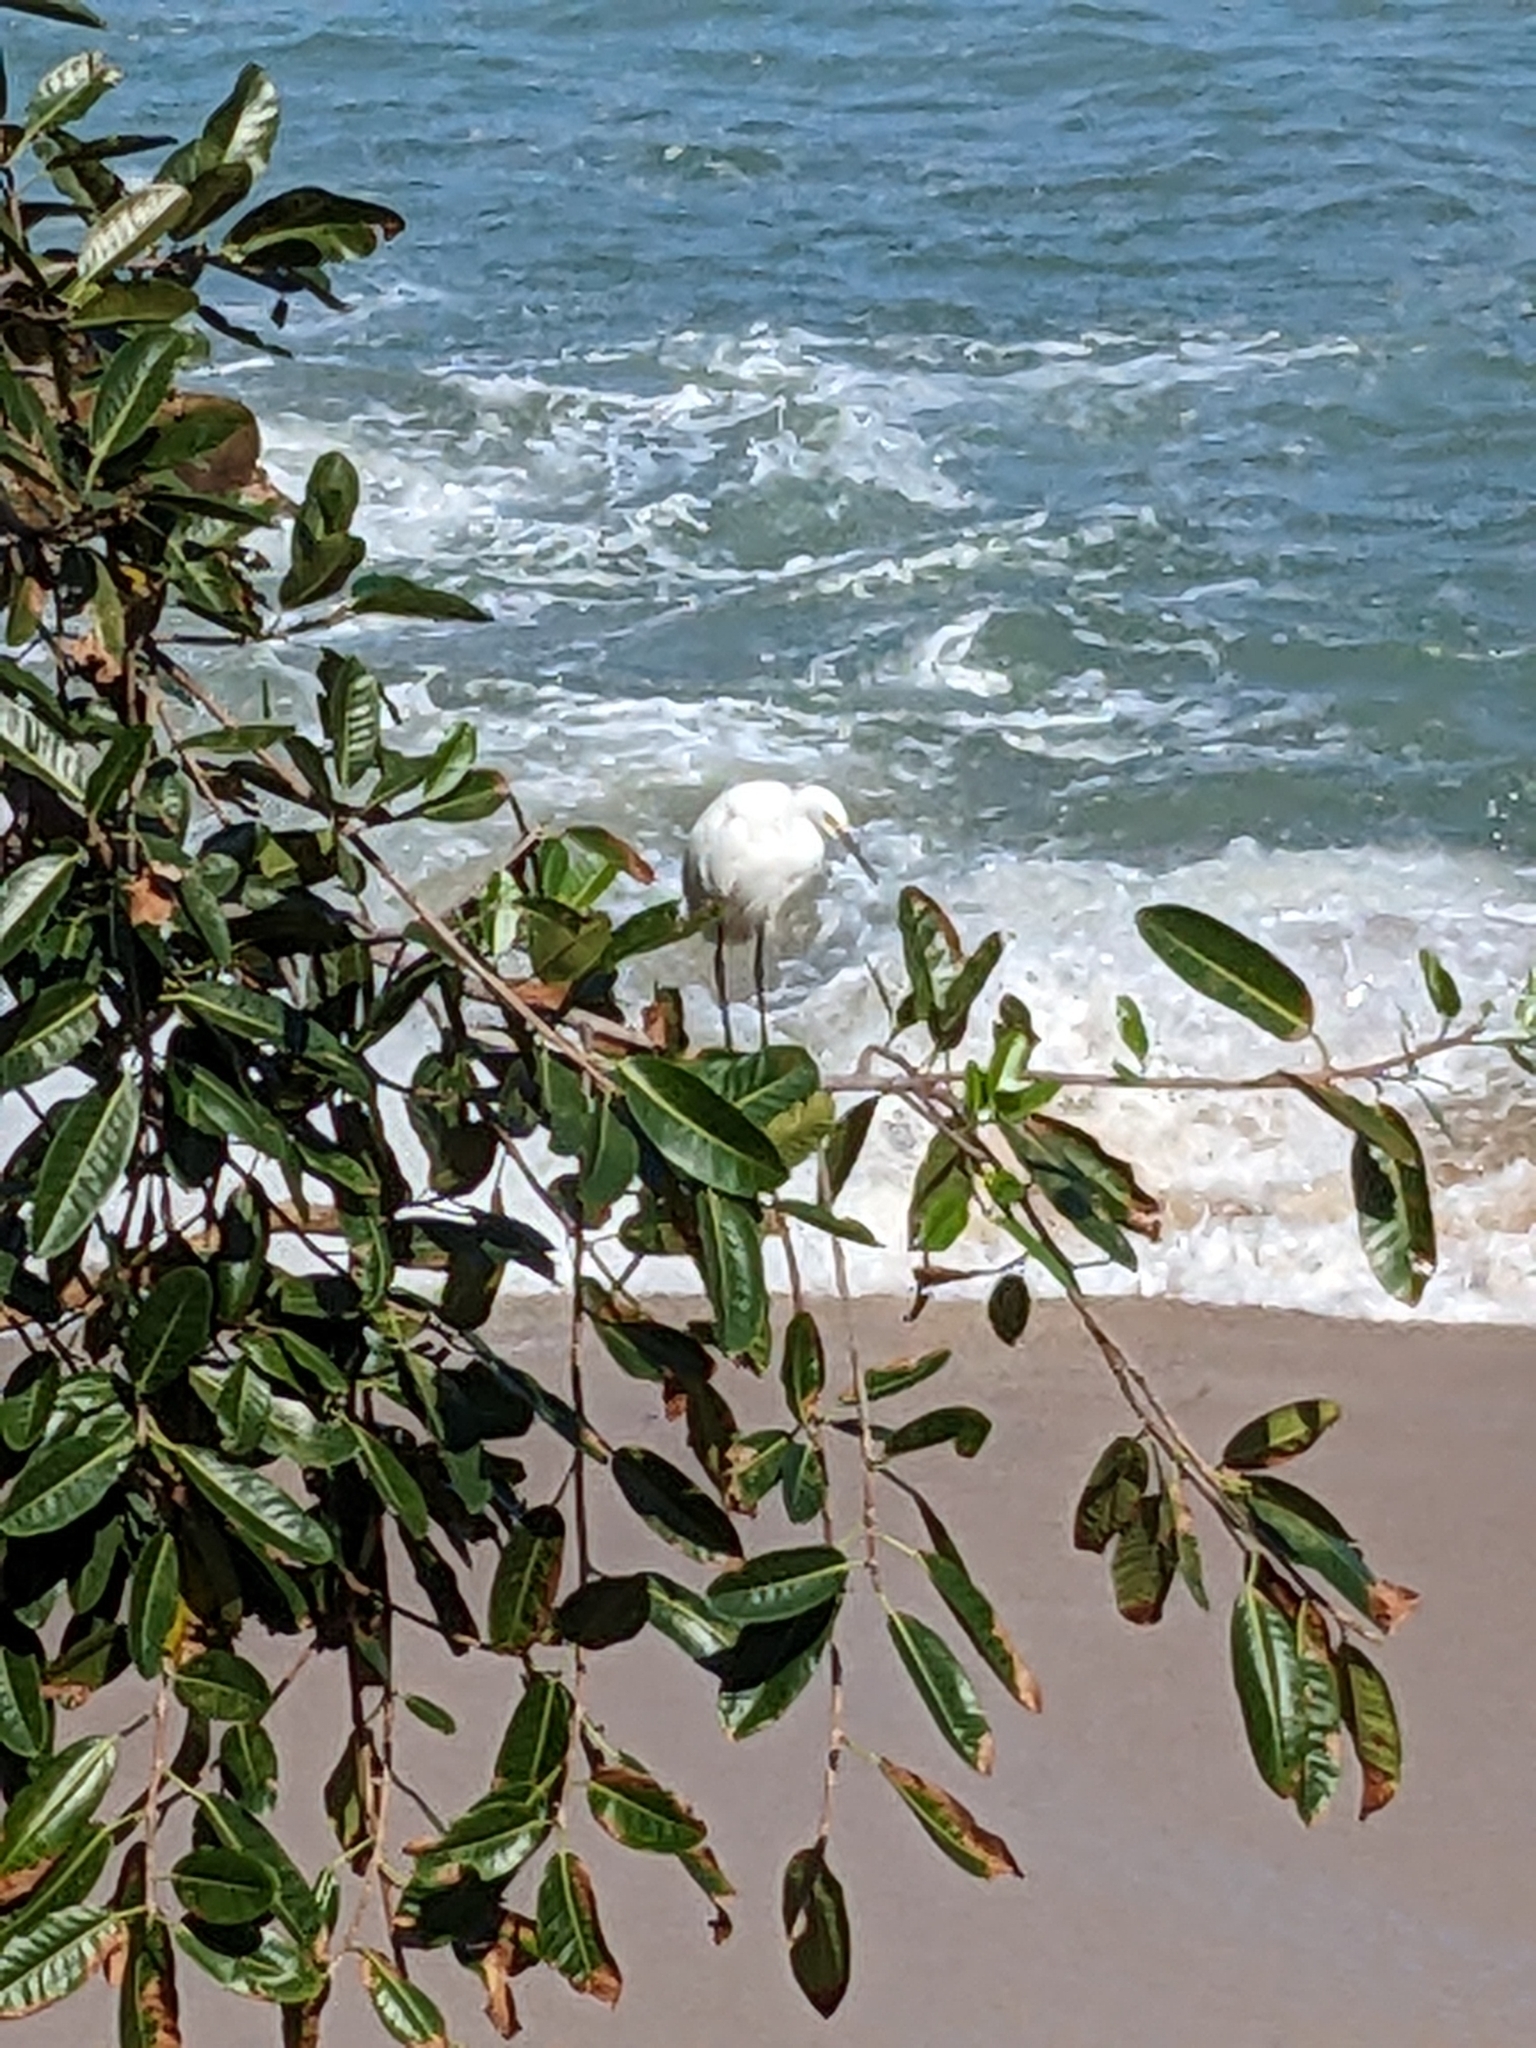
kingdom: Animalia
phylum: Chordata
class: Aves
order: Pelecaniformes
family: Ardeidae
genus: Egretta
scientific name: Egretta thula
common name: Snowy egret
